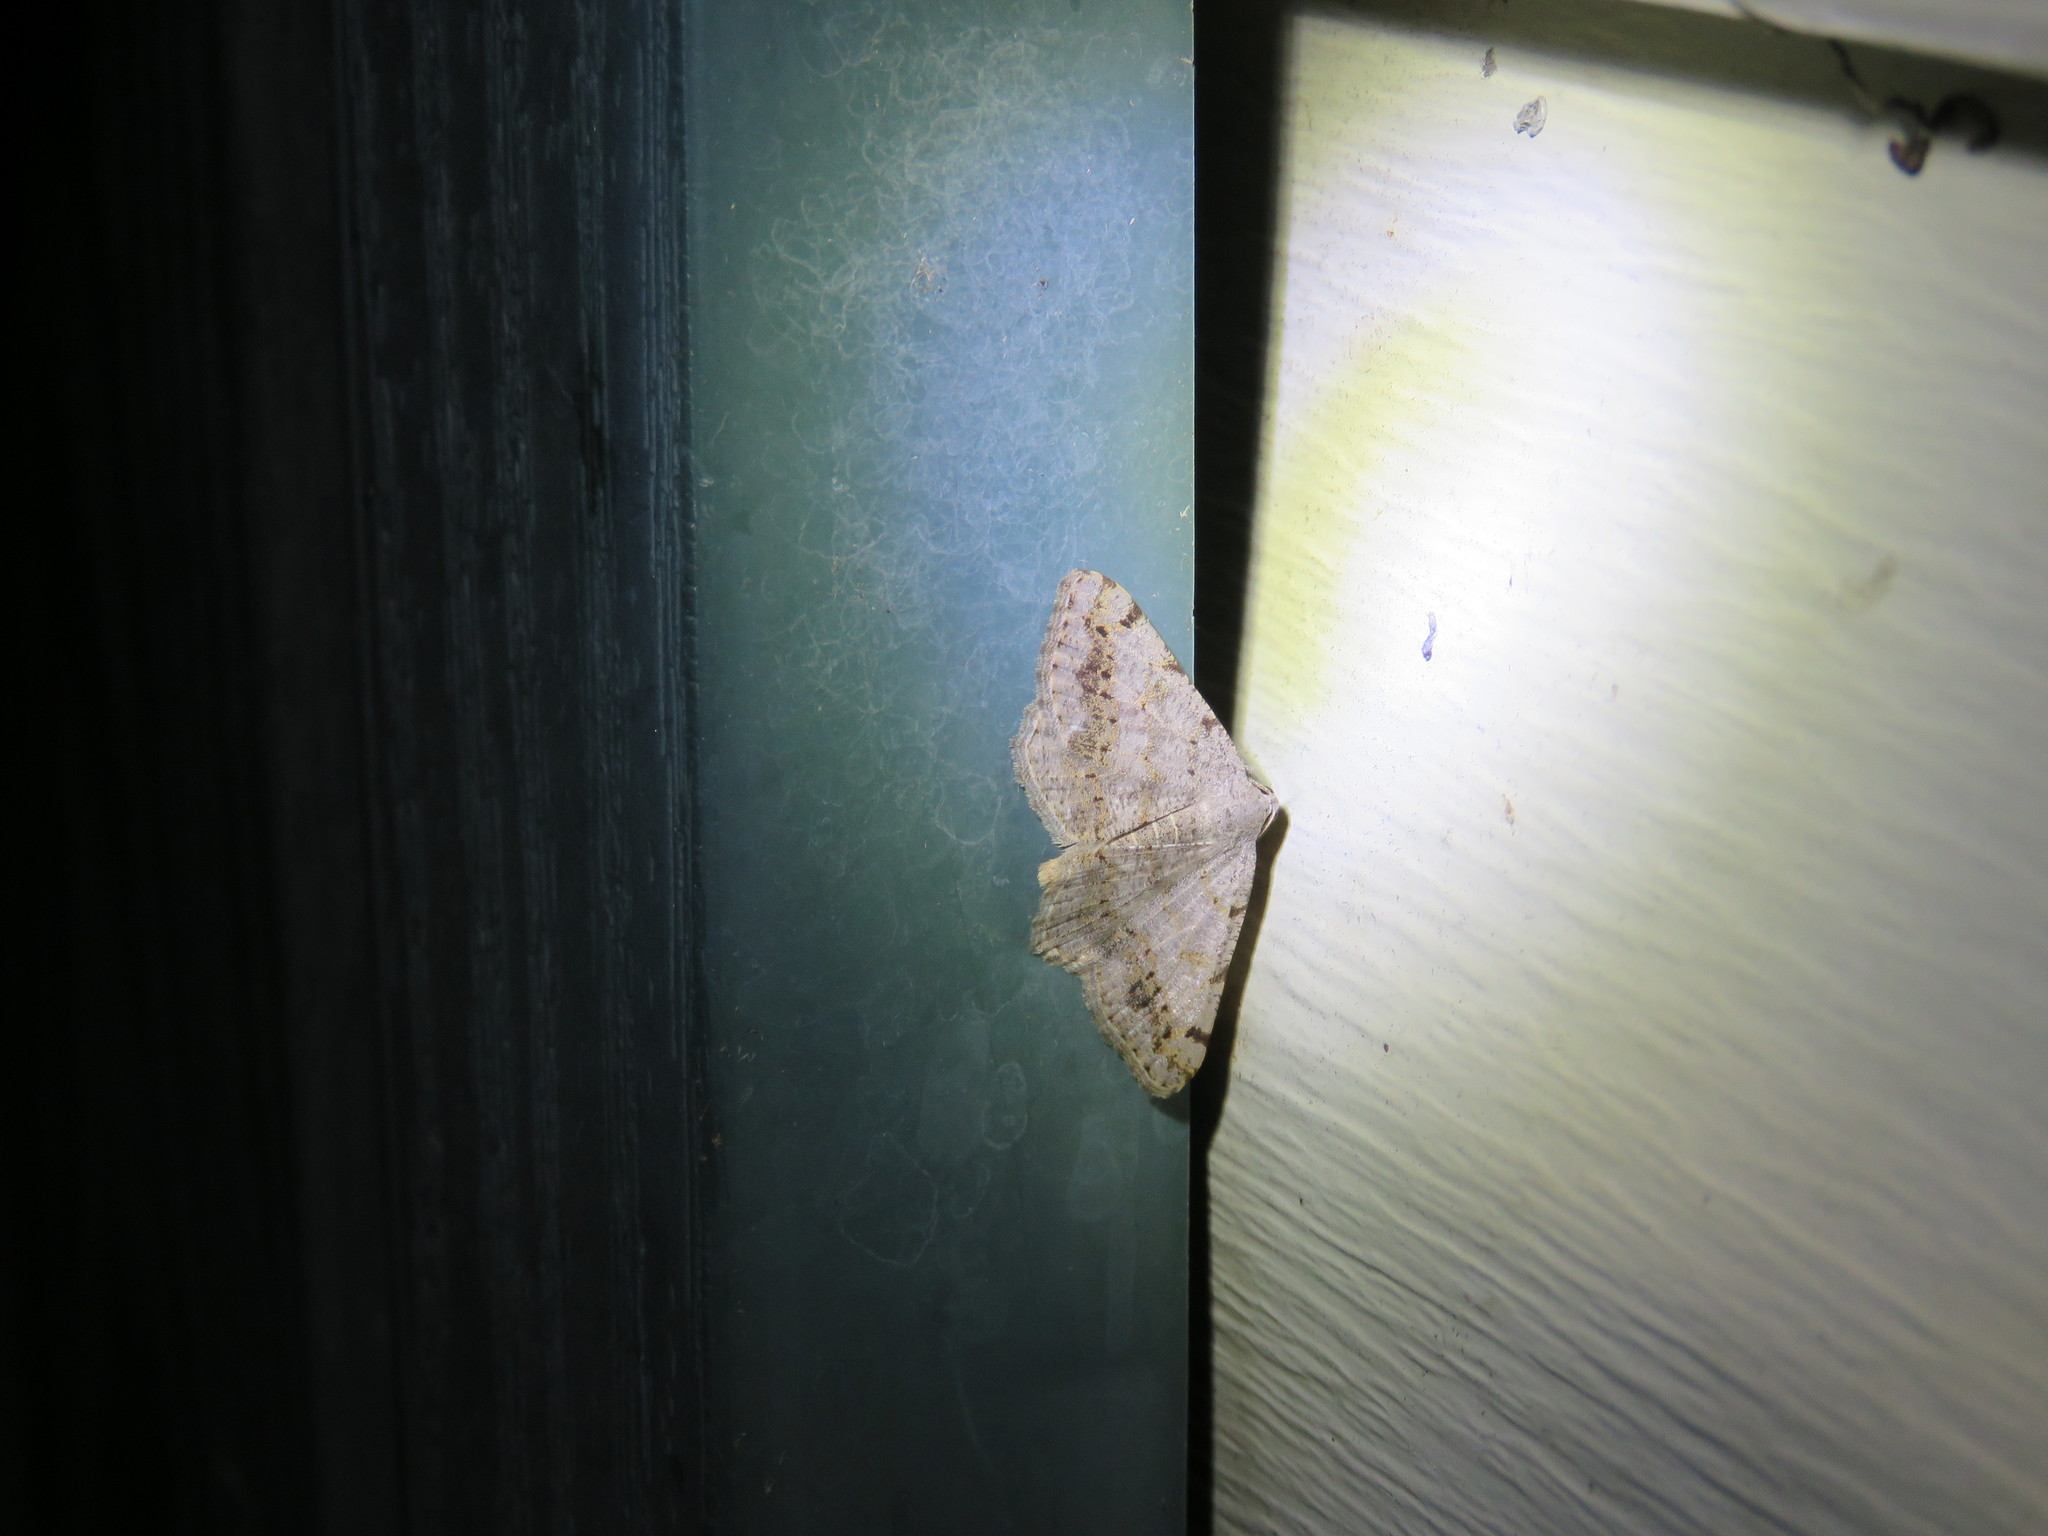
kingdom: Animalia
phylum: Arthropoda
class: Insecta
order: Lepidoptera
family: Geometridae
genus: Digrammia
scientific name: Digrammia ocellinata
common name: Faint-spotted angle
